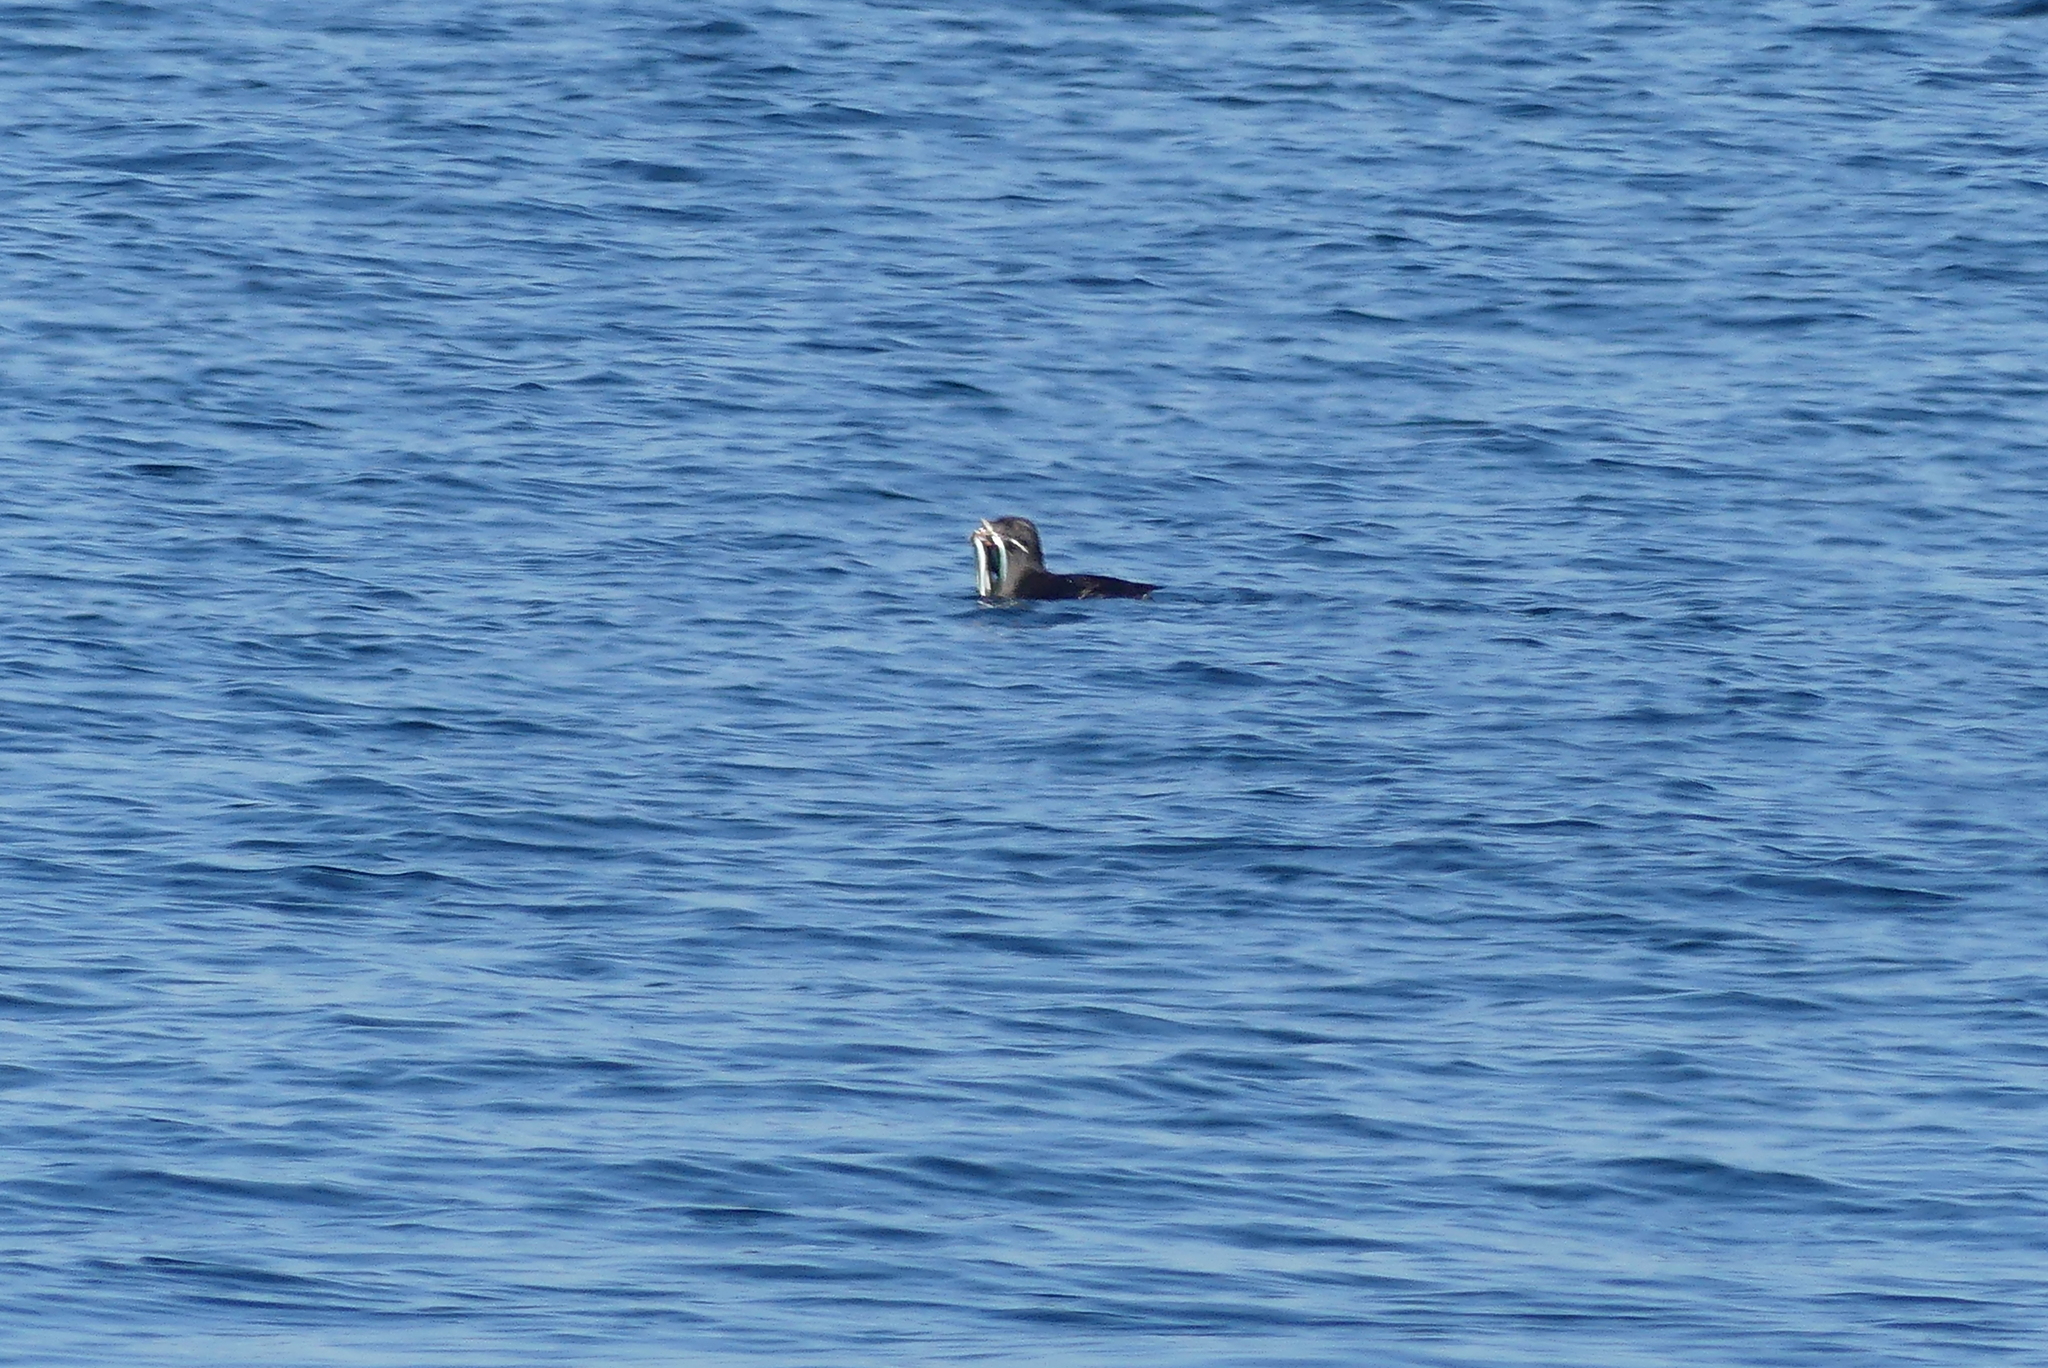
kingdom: Animalia
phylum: Chordata
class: Aves
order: Charadriiformes
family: Alcidae
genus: Cerorhinca
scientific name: Cerorhinca monocerata
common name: Rhinoceros auklet
